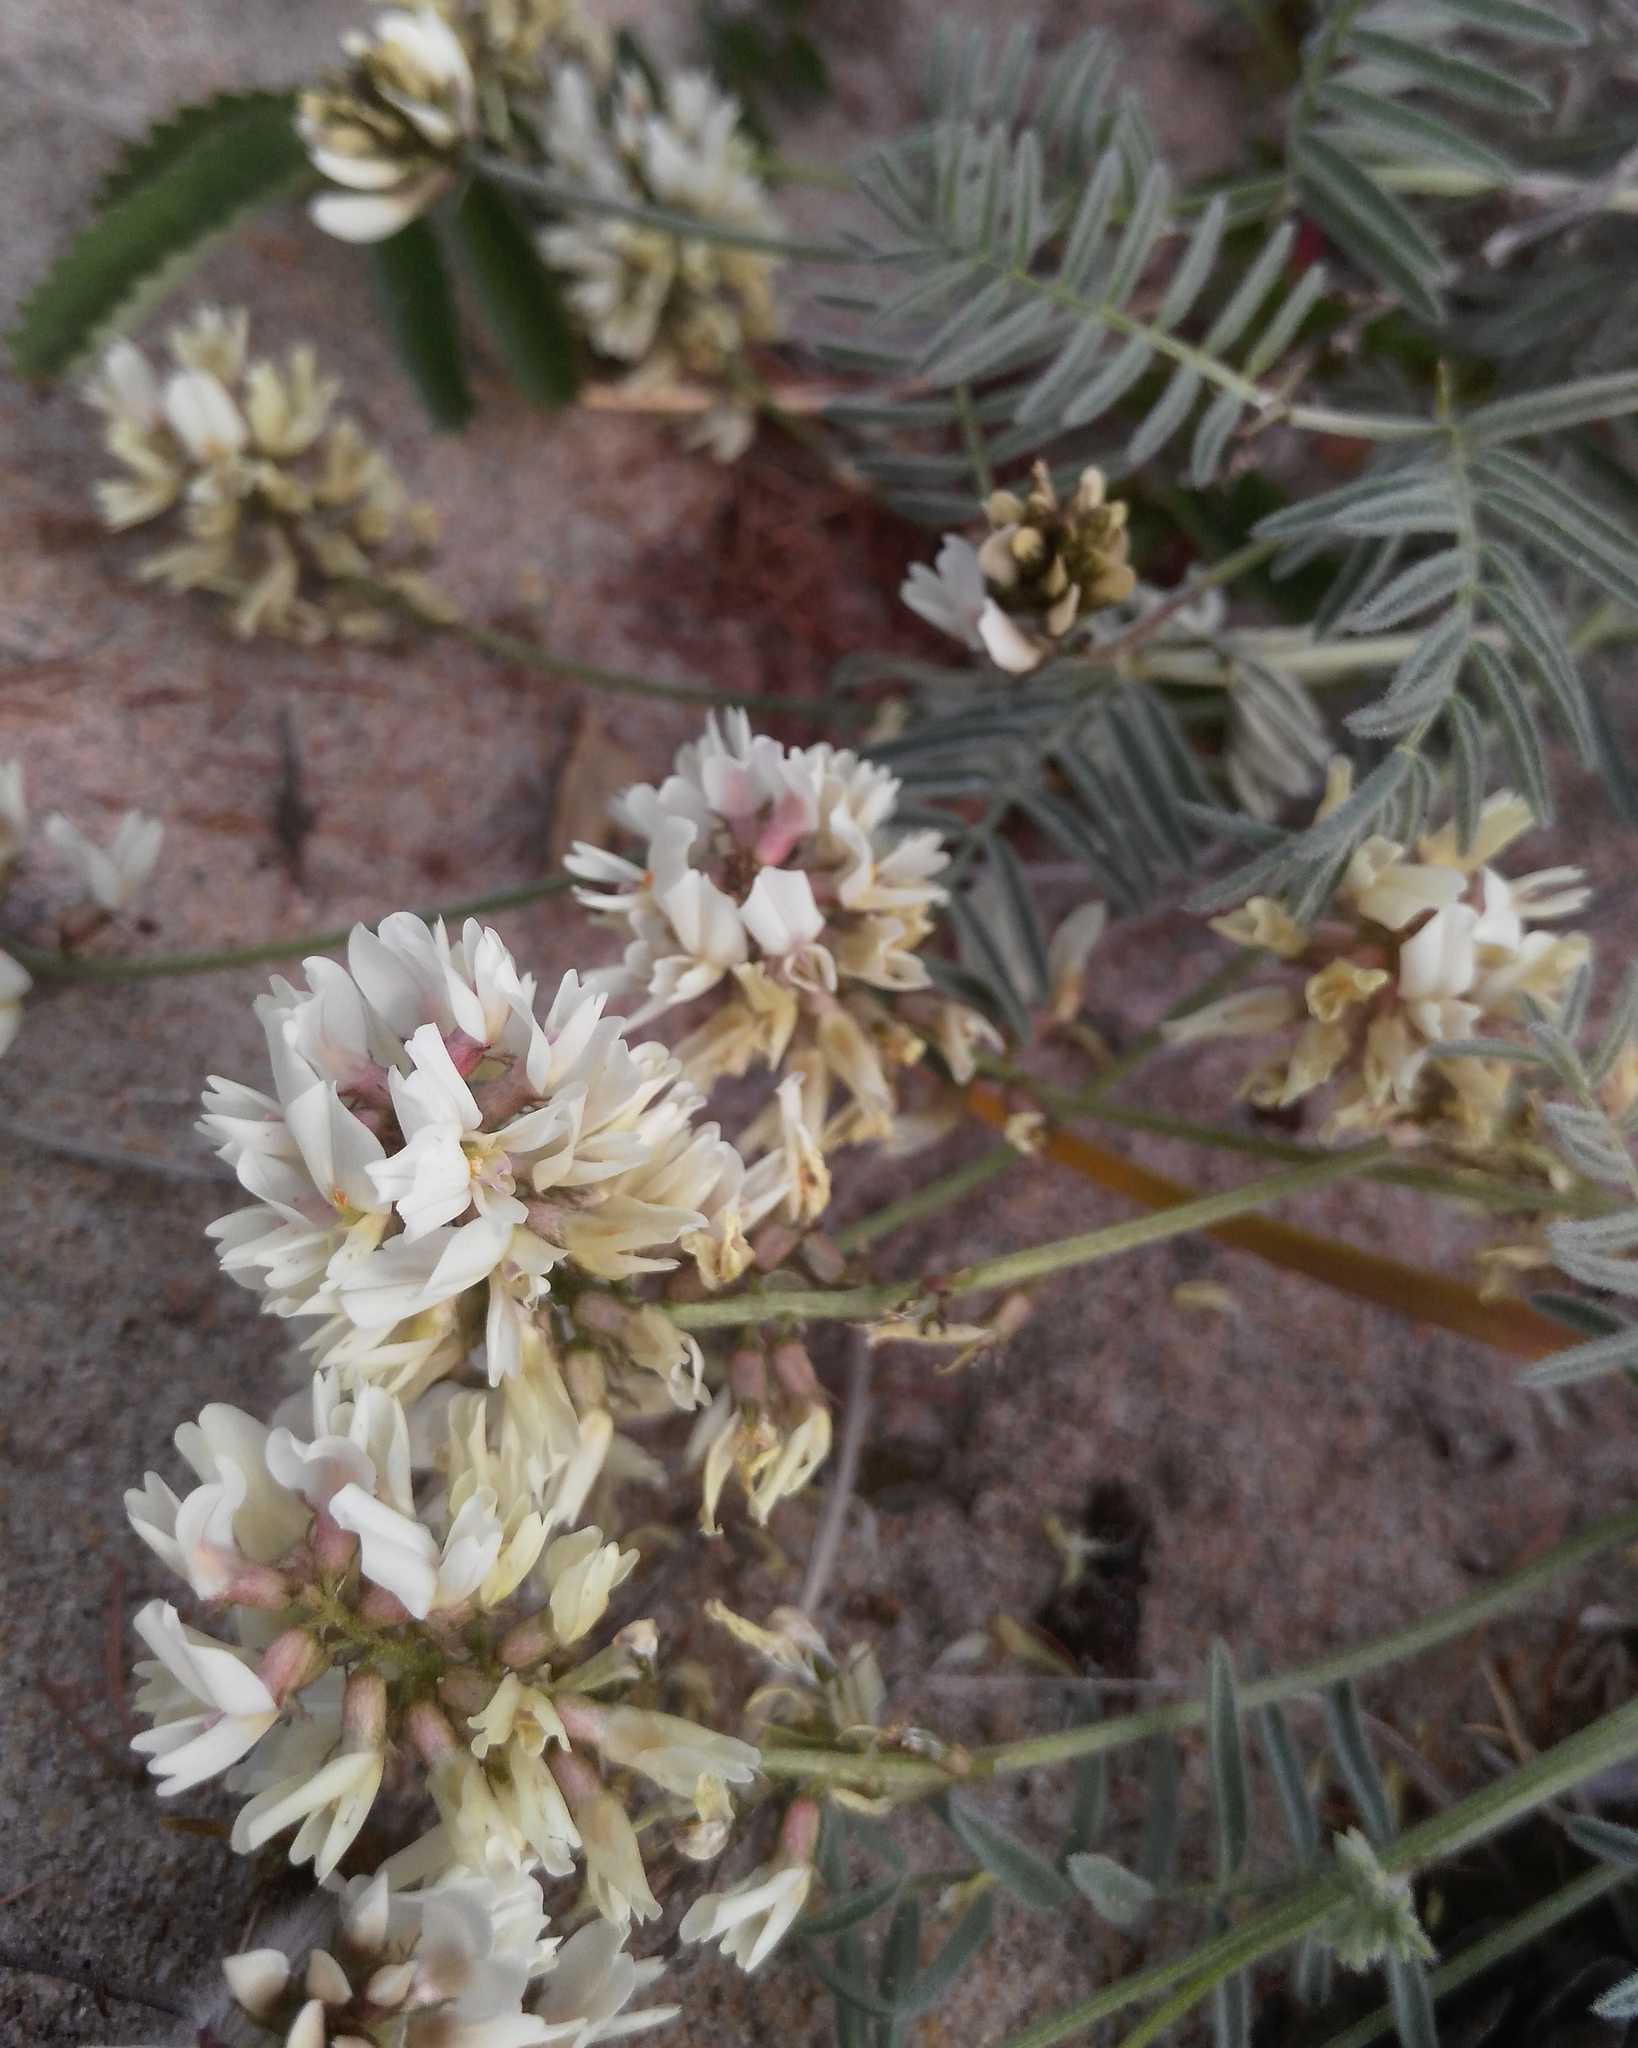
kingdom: Plantae
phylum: Tracheophyta
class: Magnoliopsida
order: Fabales
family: Fabaceae
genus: Astragalus
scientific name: Astragalus olchonensis
